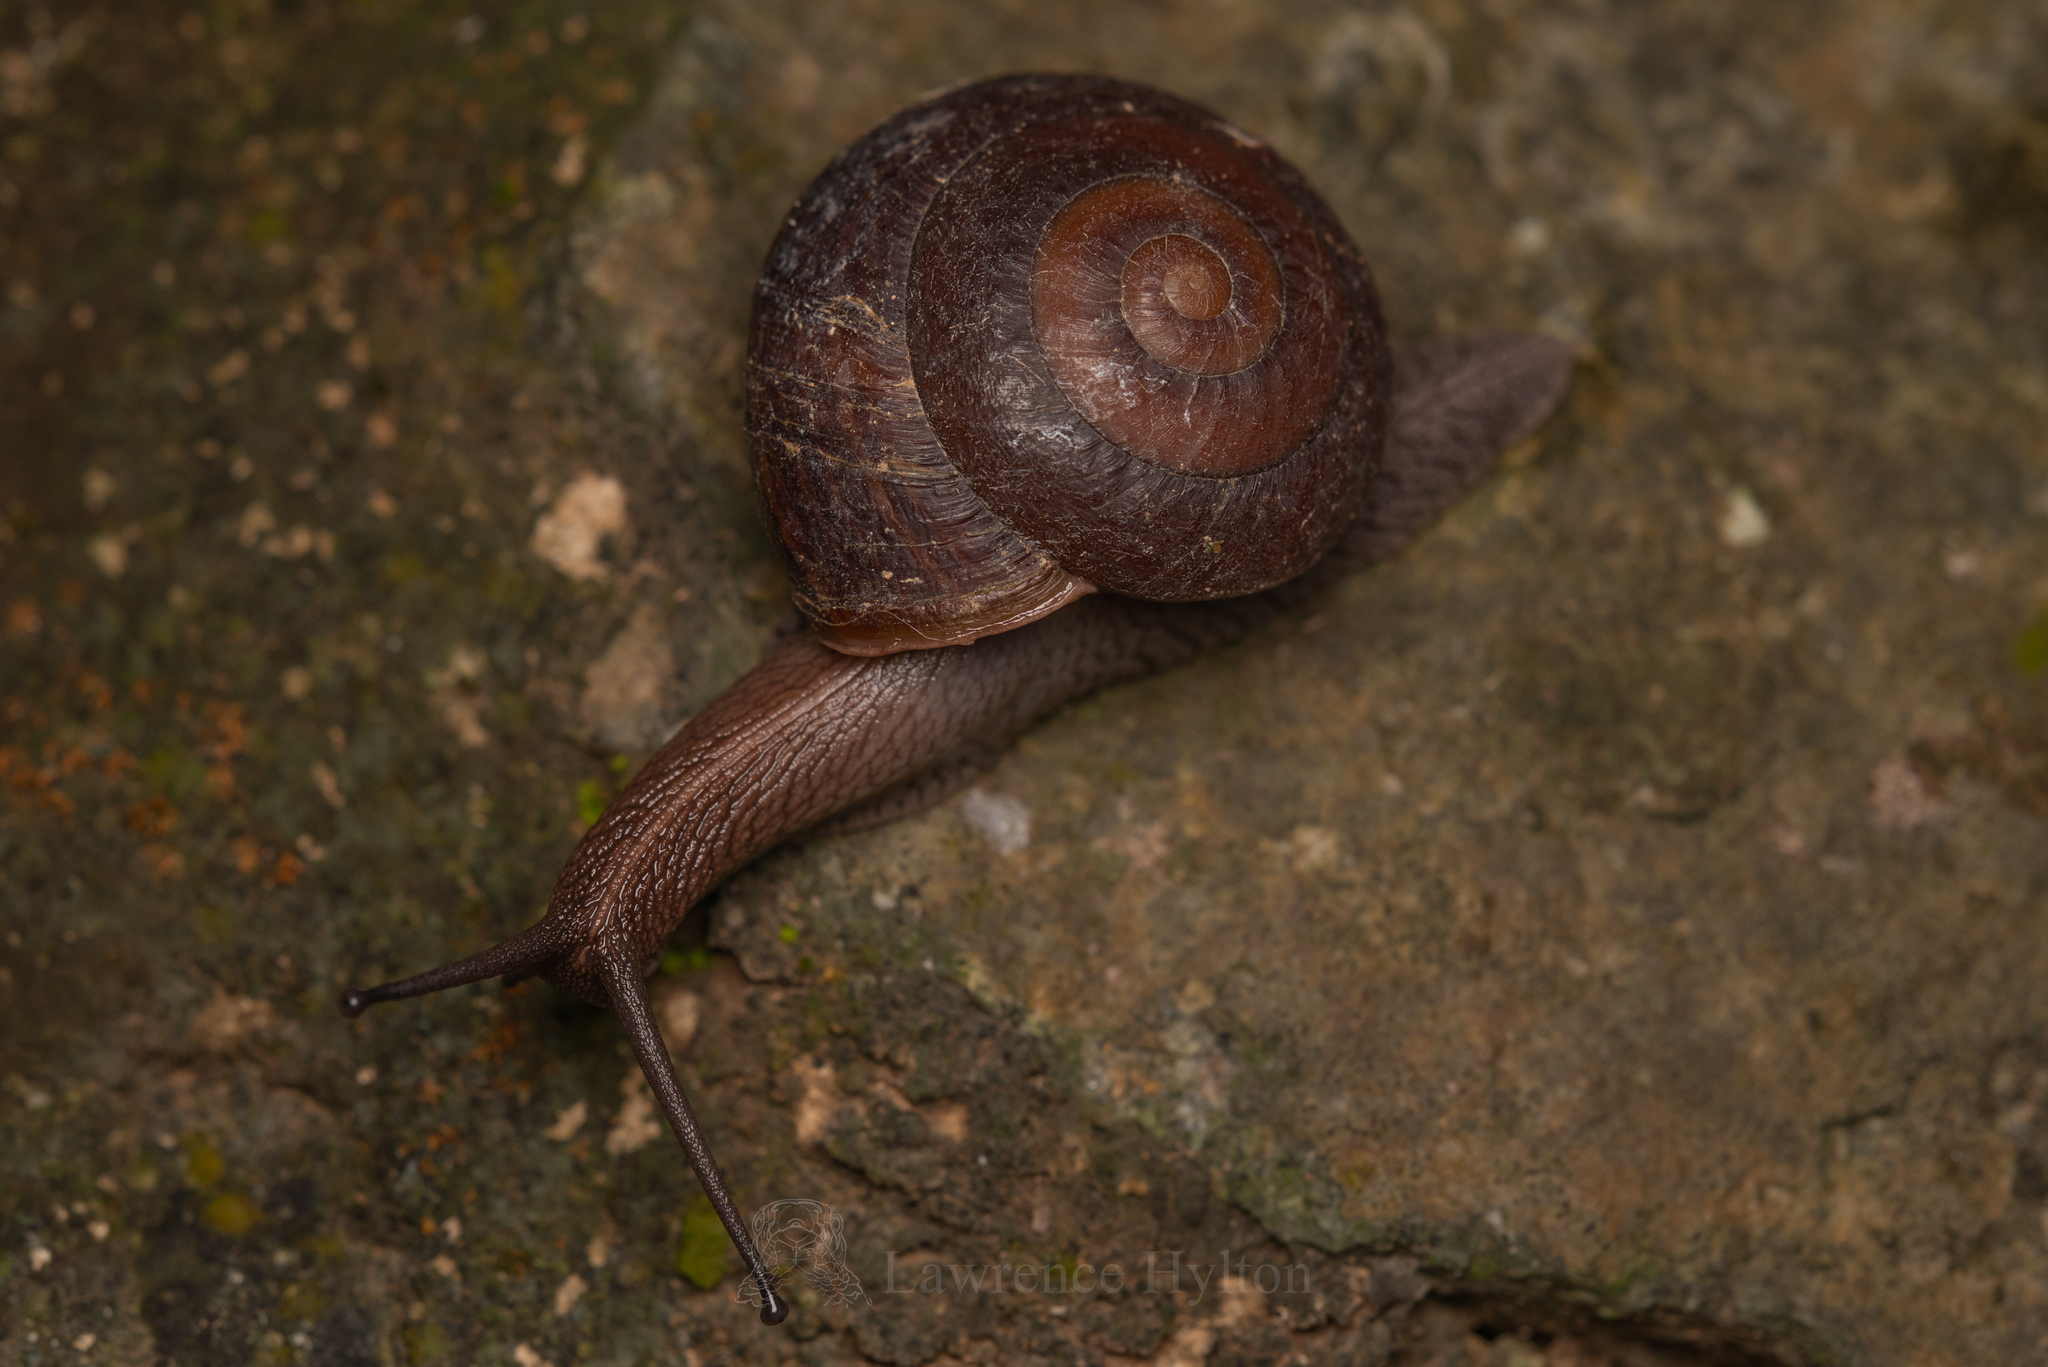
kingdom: Animalia
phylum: Mollusca
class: Gastropoda
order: Stylommatophora
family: Camaenidae
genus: Camaena
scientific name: Camaena cicatricosa
